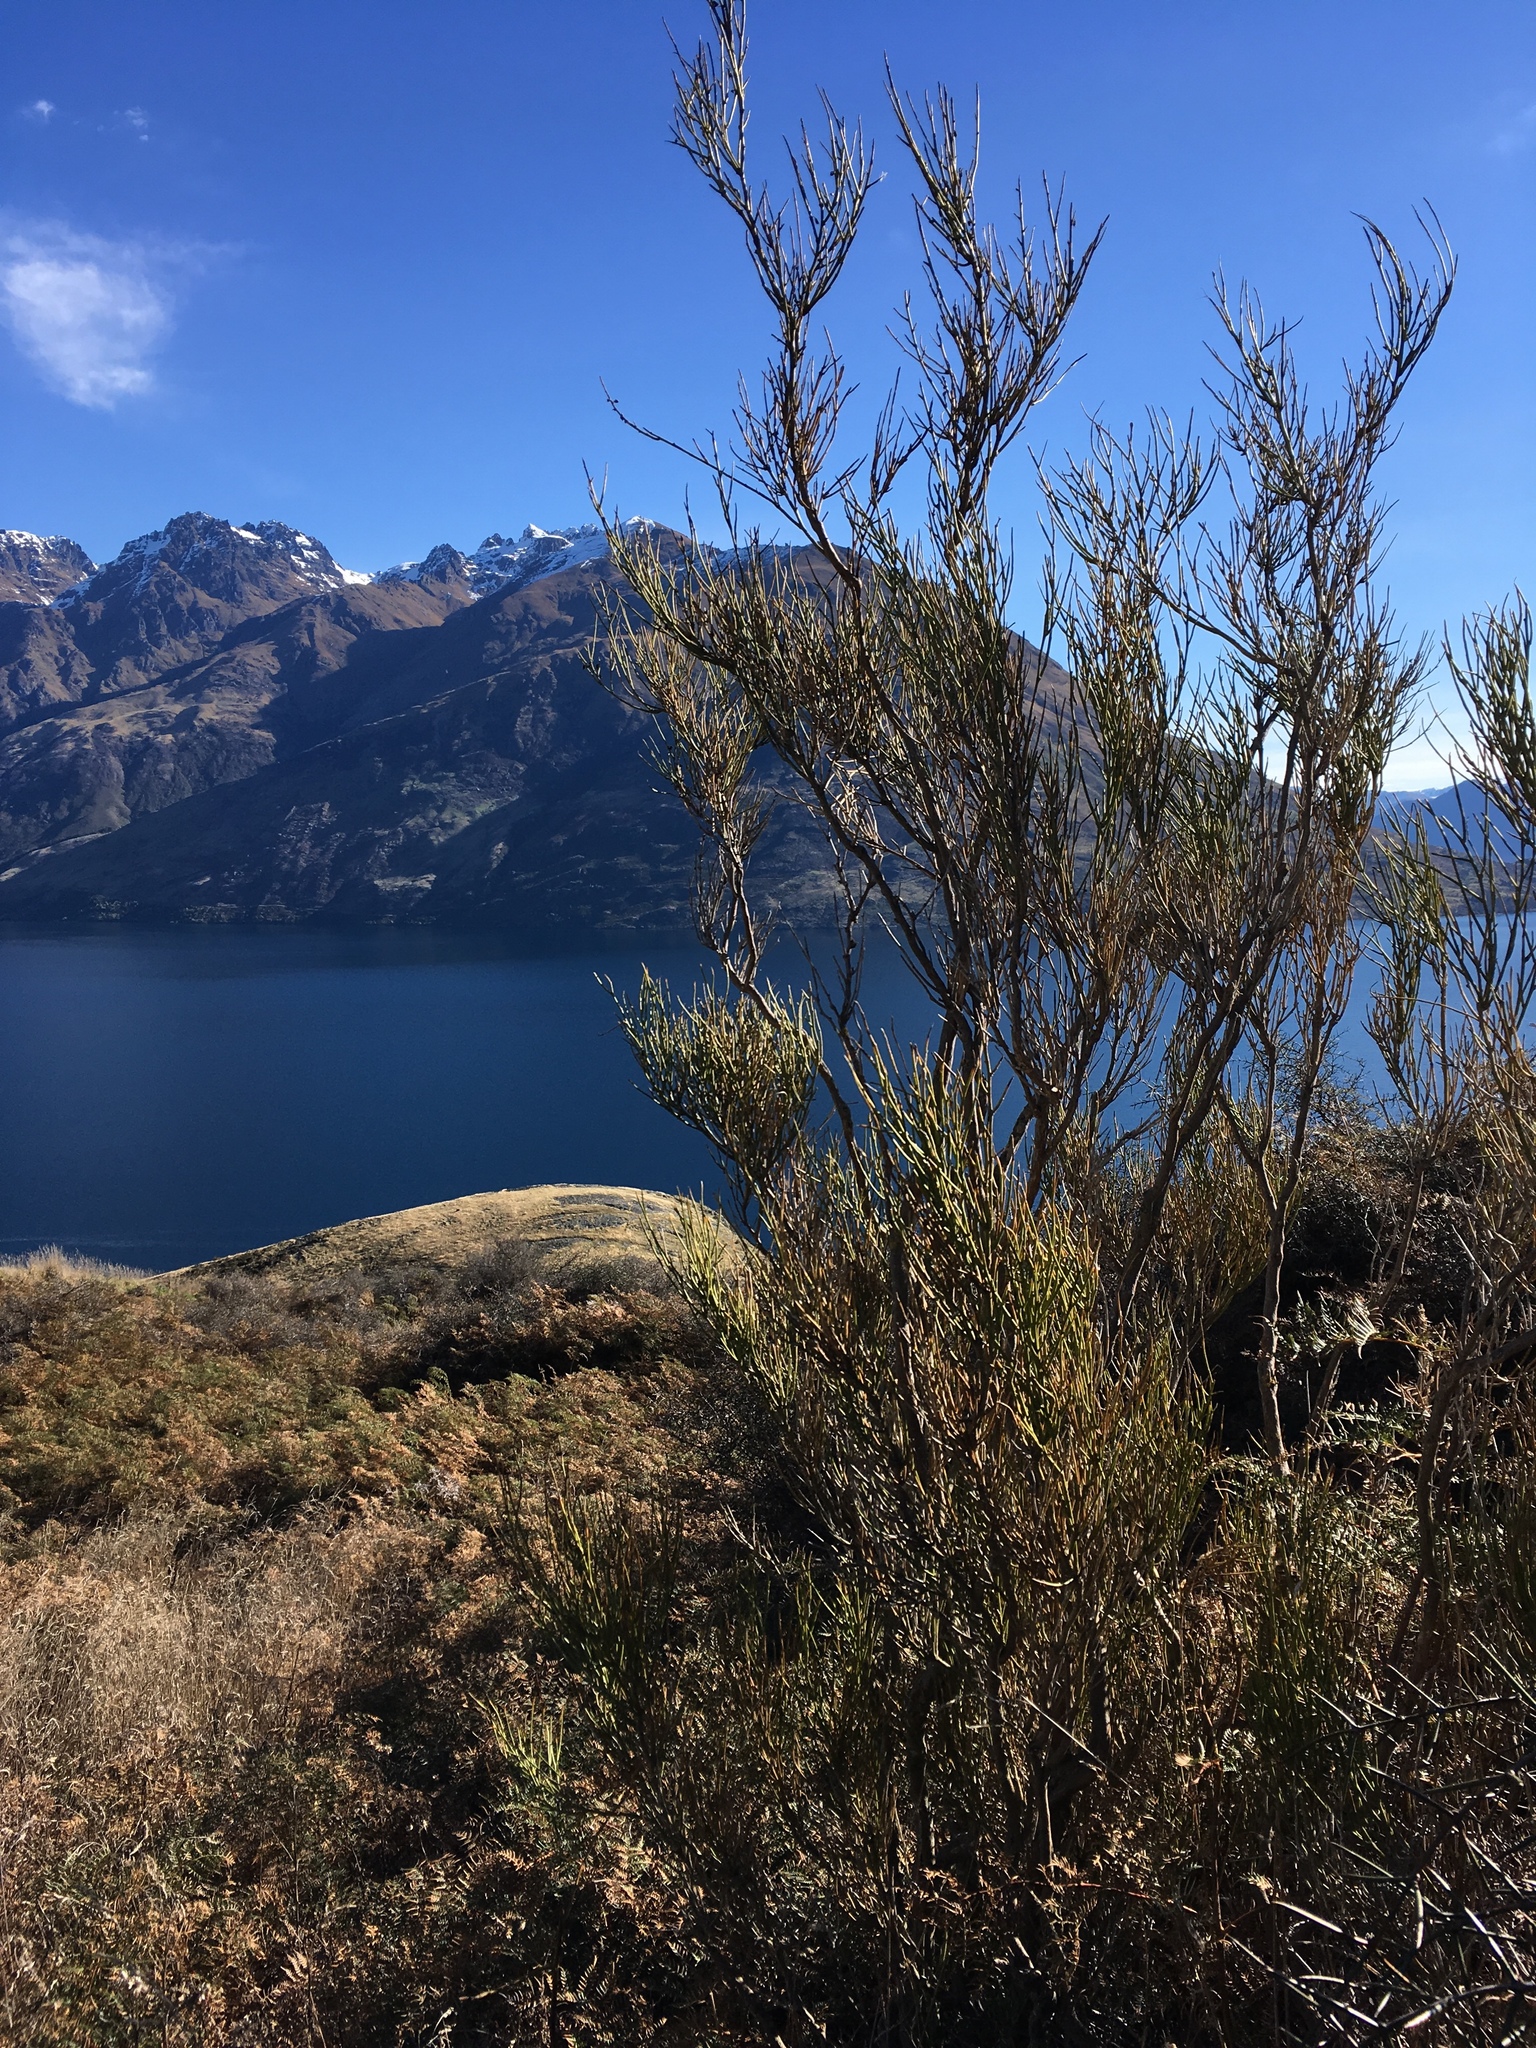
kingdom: Plantae
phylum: Tracheophyta
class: Magnoliopsida
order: Fabales
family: Fabaceae
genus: Carmichaelia
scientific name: Carmichaelia petriei
